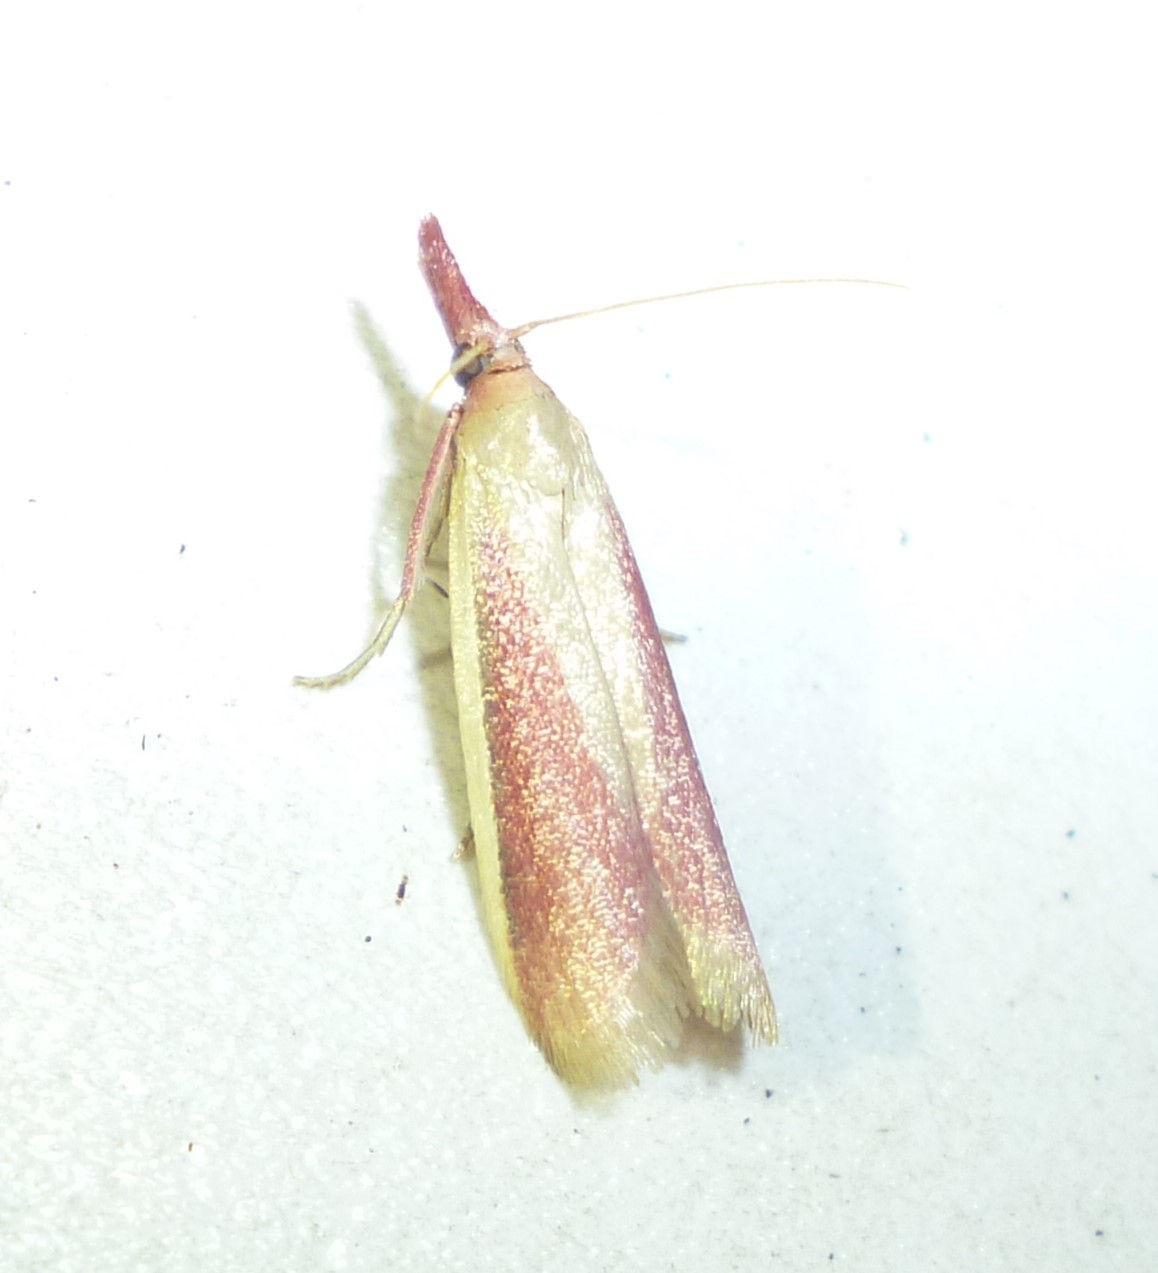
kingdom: Animalia
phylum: Arthropoda
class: Insecta
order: Lepidoptera
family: Pyralidae
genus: Peoria
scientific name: Peoria approximella
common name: Carmine snout
